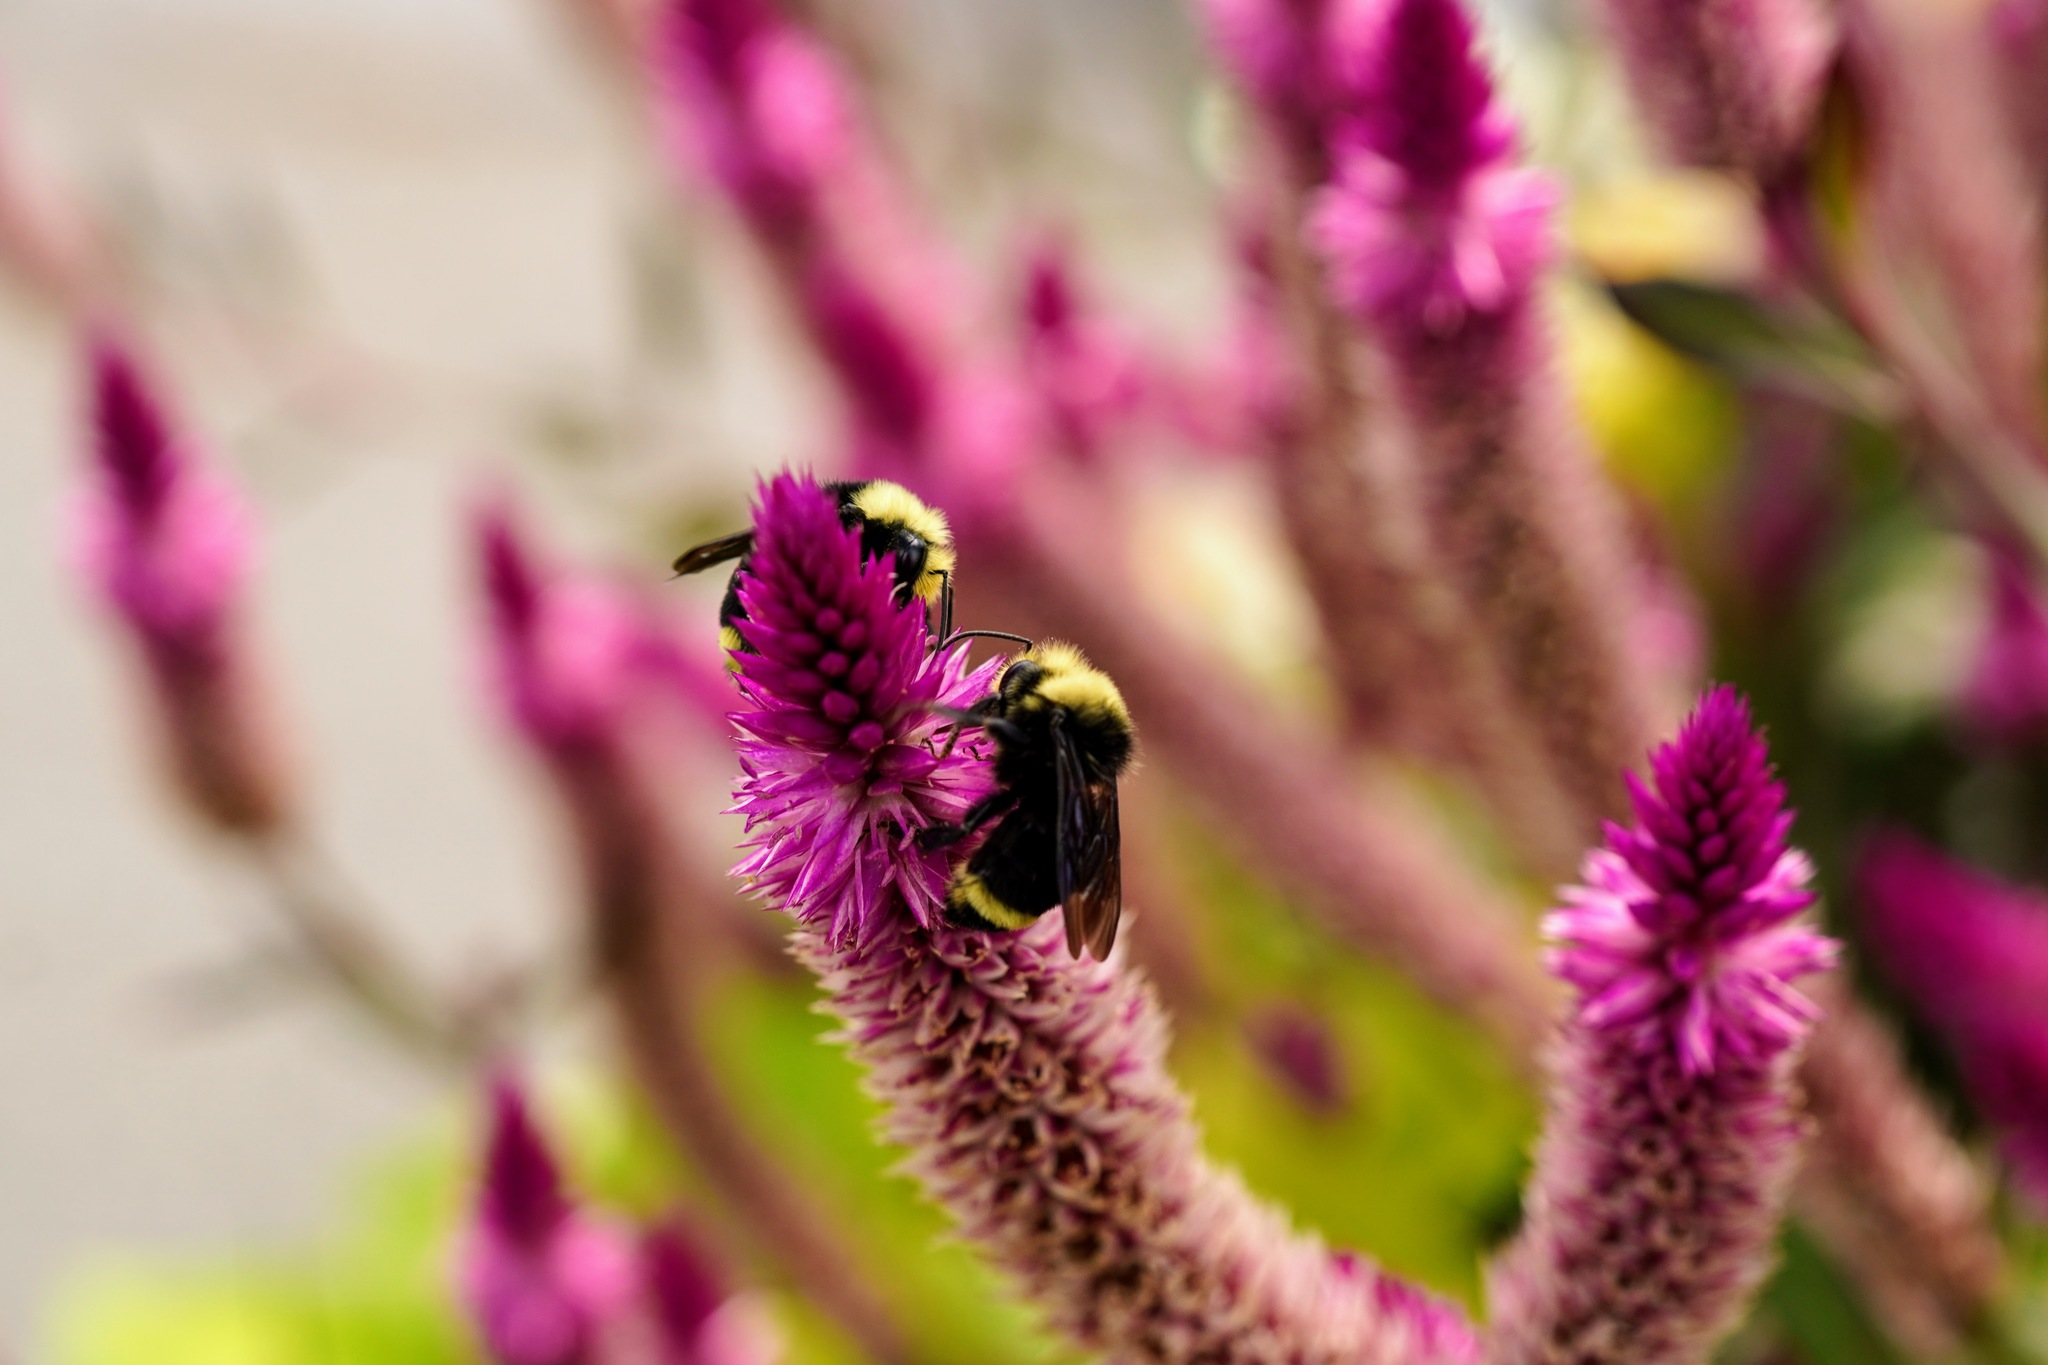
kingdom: Animalia
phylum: Arthropoda
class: Insecta
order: Hymenoptera
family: Apidae
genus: Bombus
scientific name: Bombus vosnesenskii
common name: Vosnesensky bumble bee
